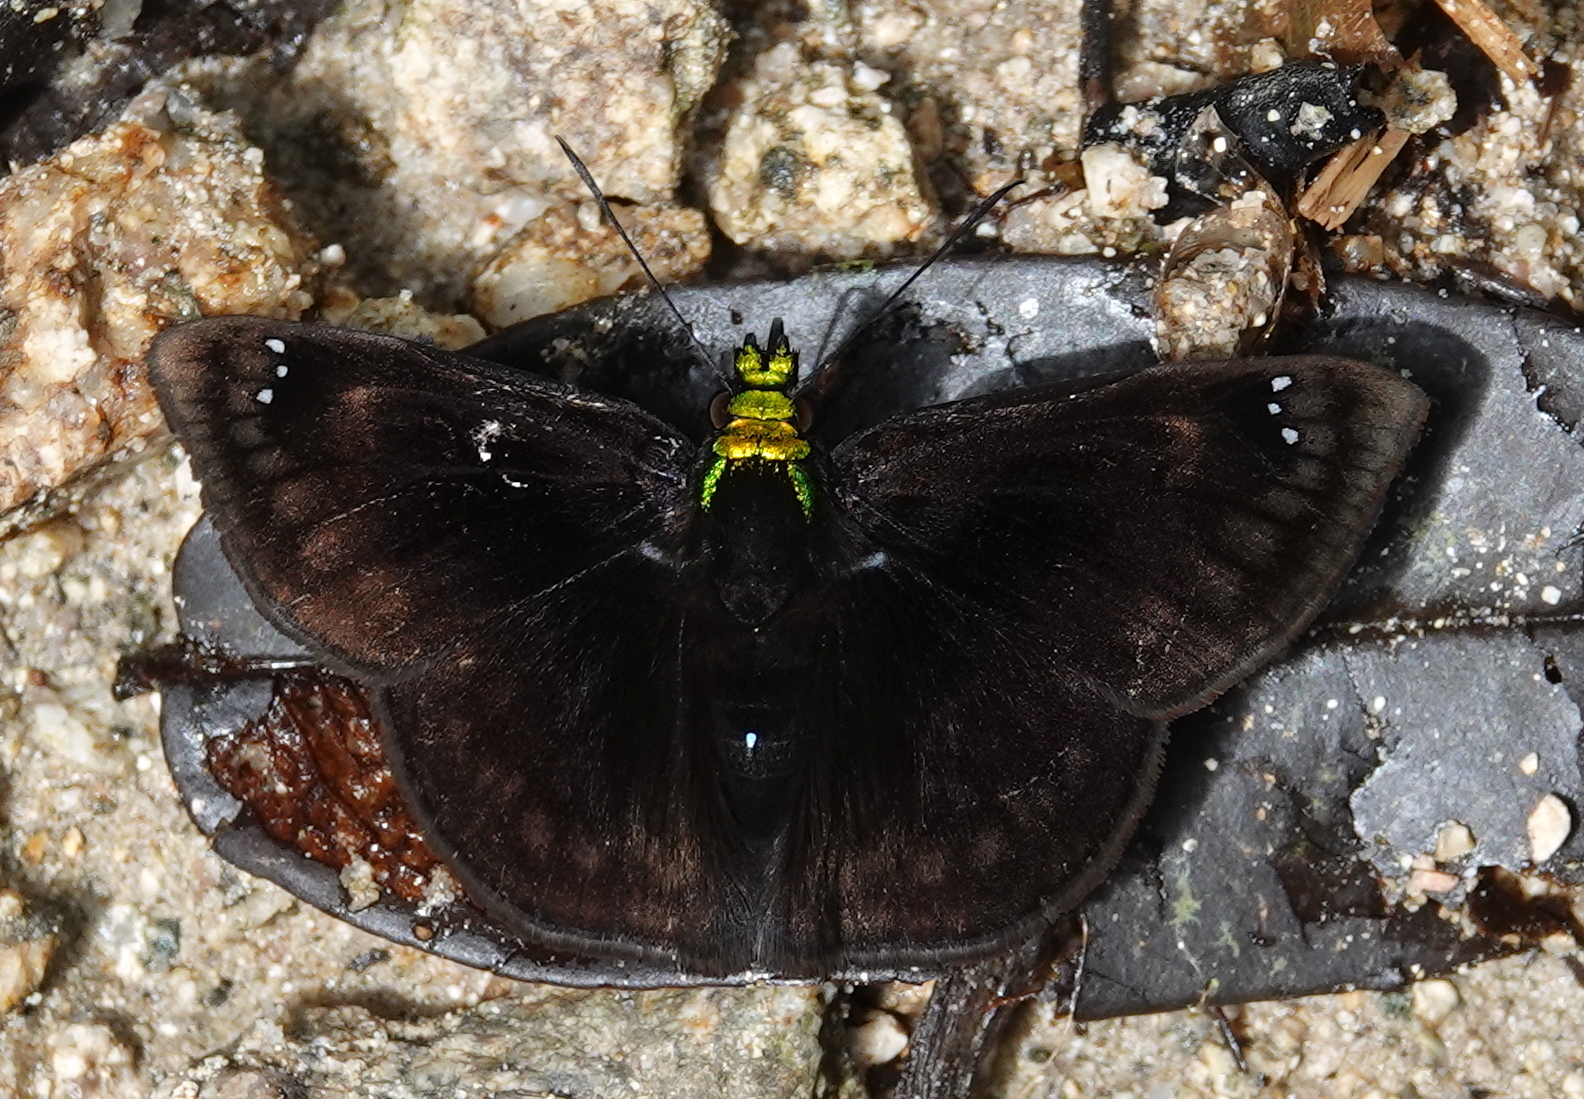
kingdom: Animalia
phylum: Arthropoda
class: Insecta
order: Lepidoptera
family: Hesperiidae
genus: Gorgopas
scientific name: Gorgopas chlorocephala
